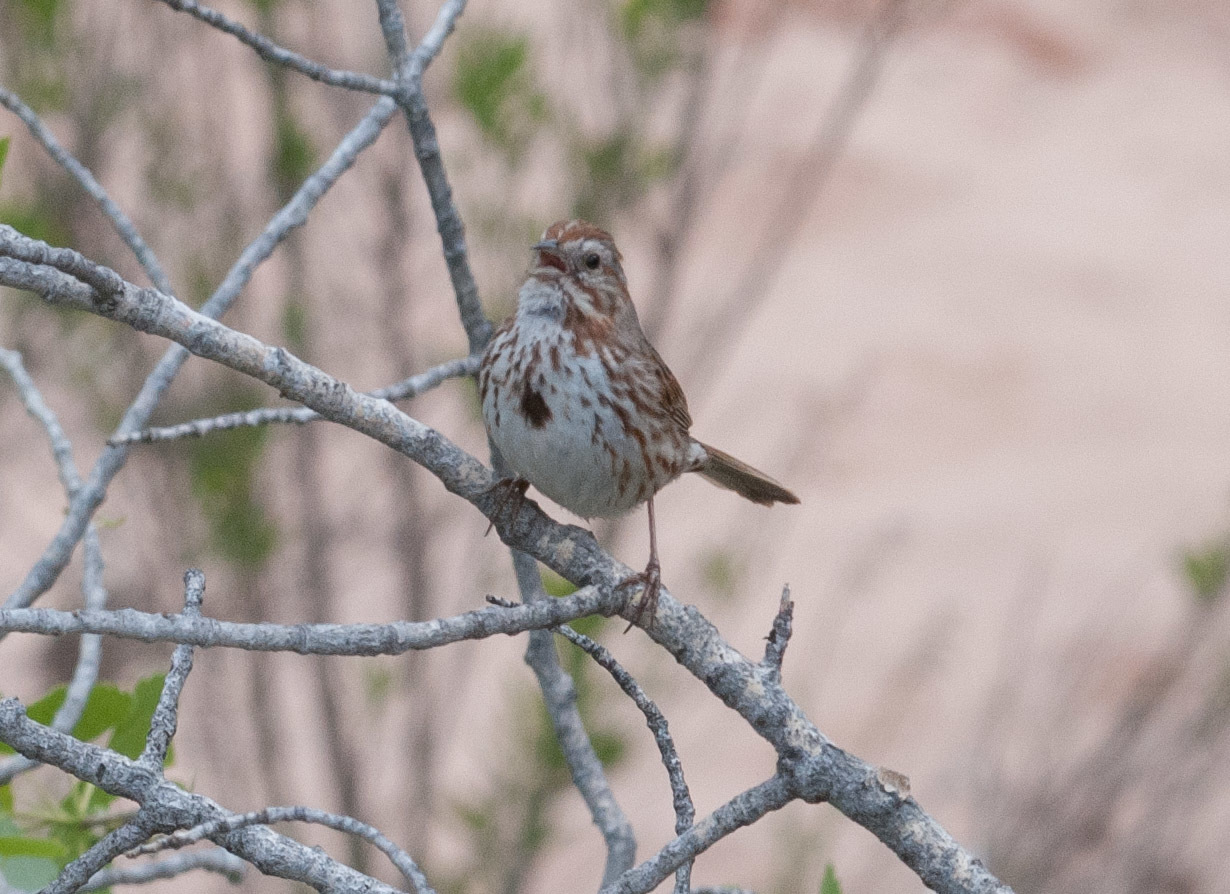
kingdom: Animalia
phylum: Chordata
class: Aves
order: Passeriformes
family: Passerellidae
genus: Melospiza
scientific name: Melospiza melodia
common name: Song sparrow
